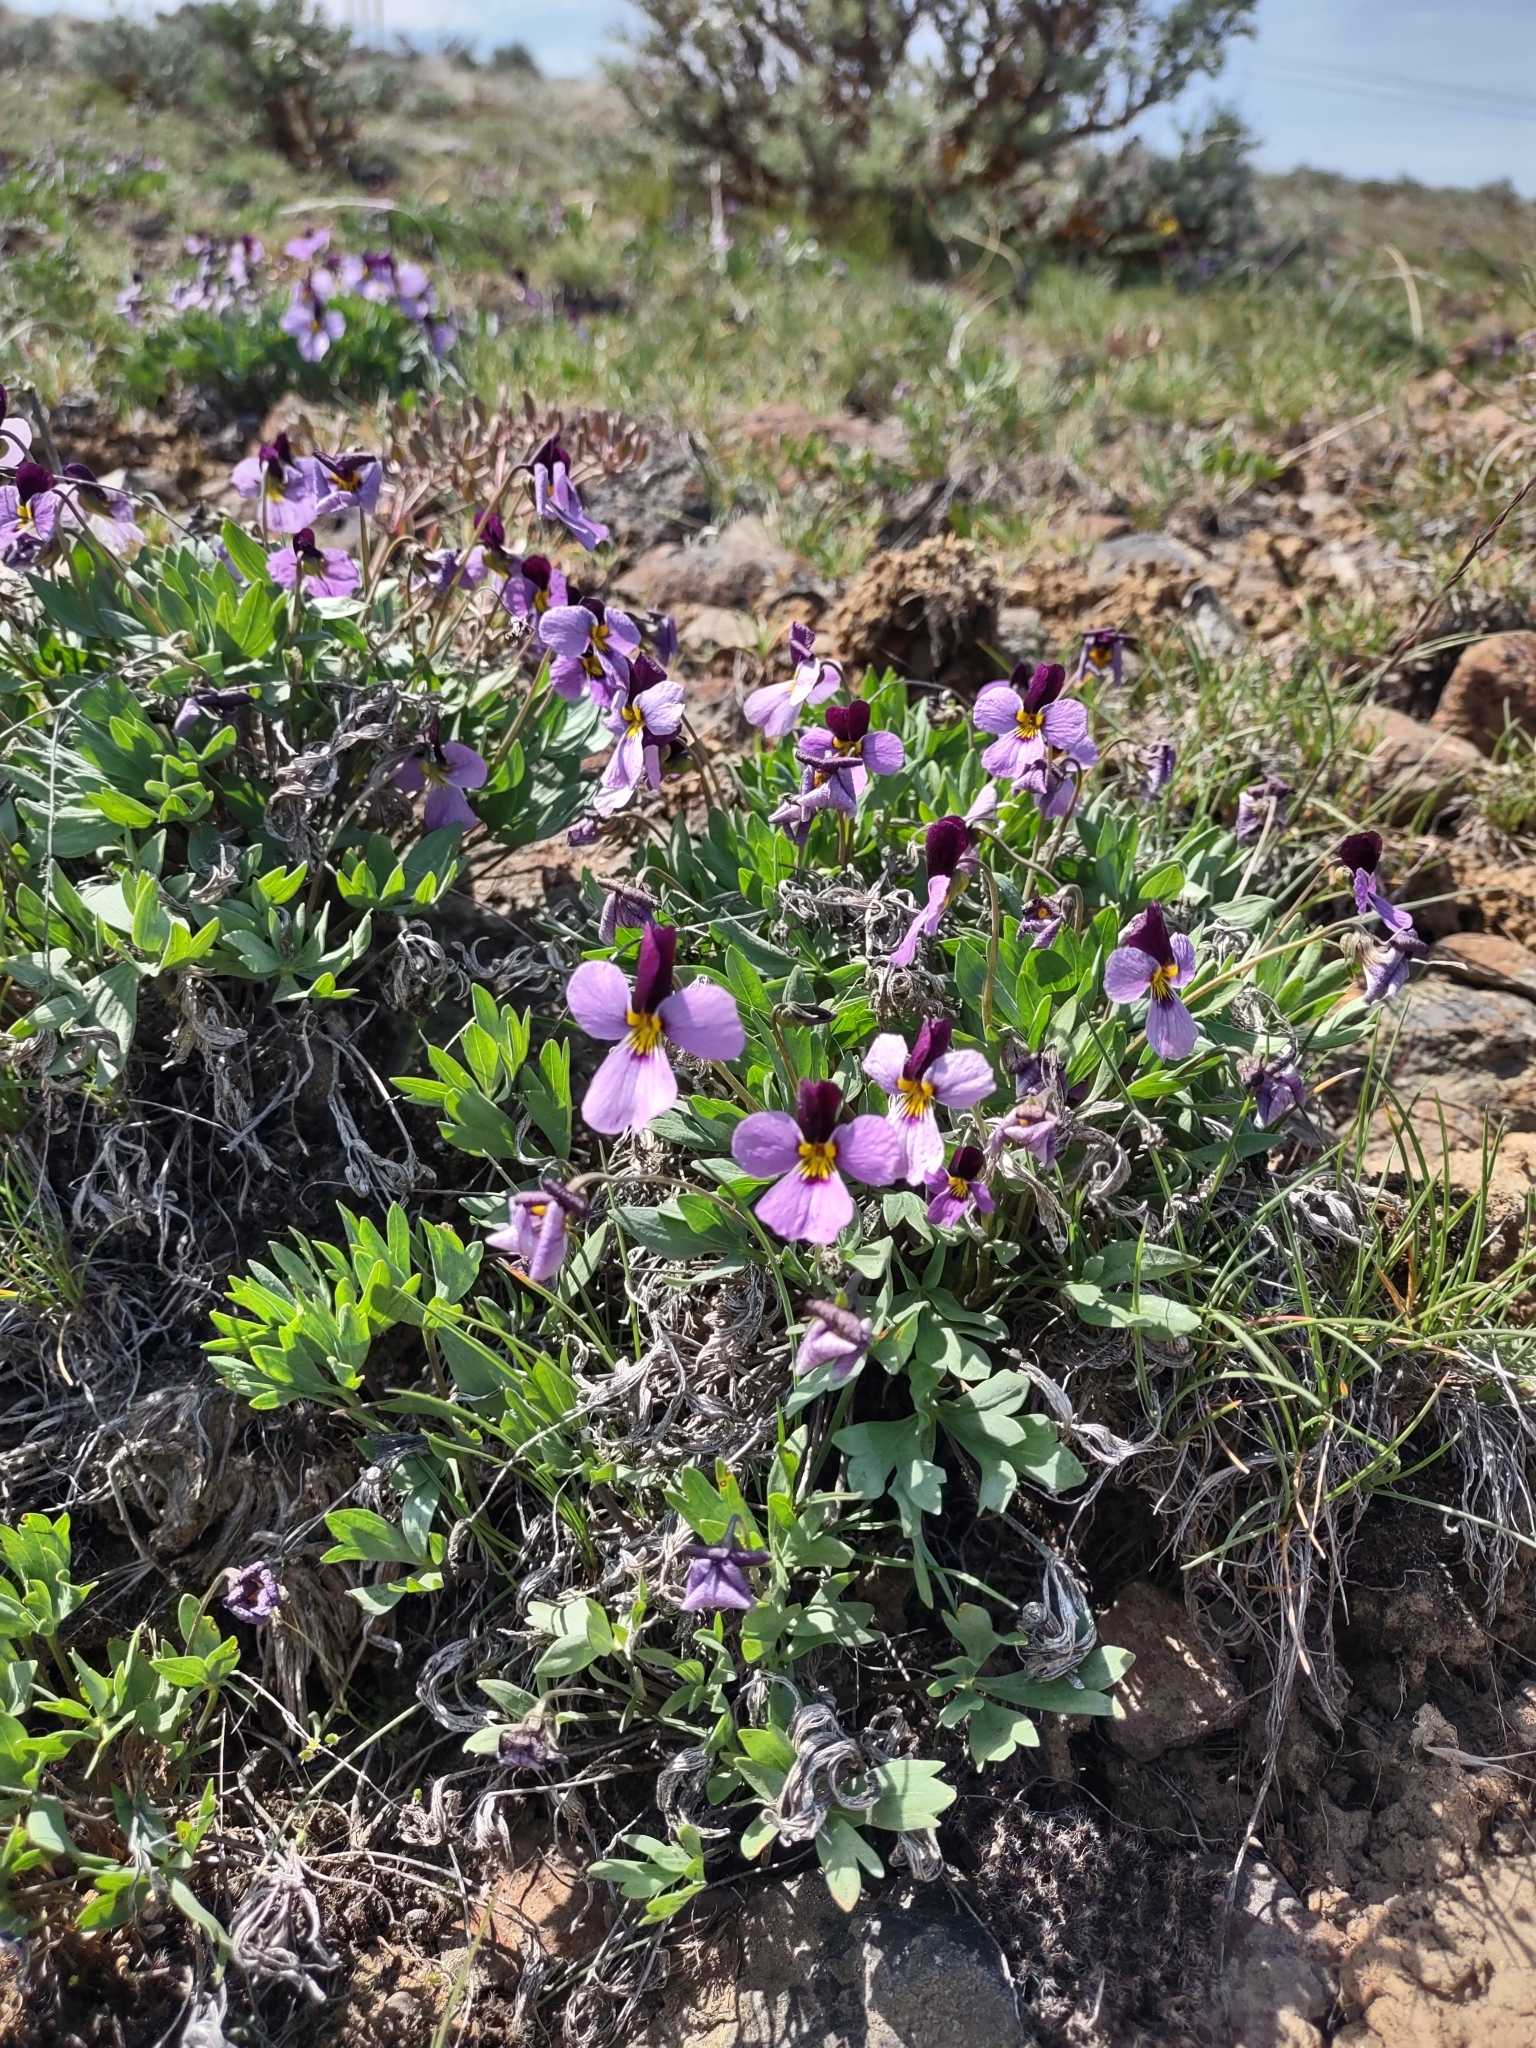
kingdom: Plantae
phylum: Tracheophyta
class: Magnoliopsida
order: Malpighiales
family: Violaceae
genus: Viola
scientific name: Viola trinervata
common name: Sagebrush violet
